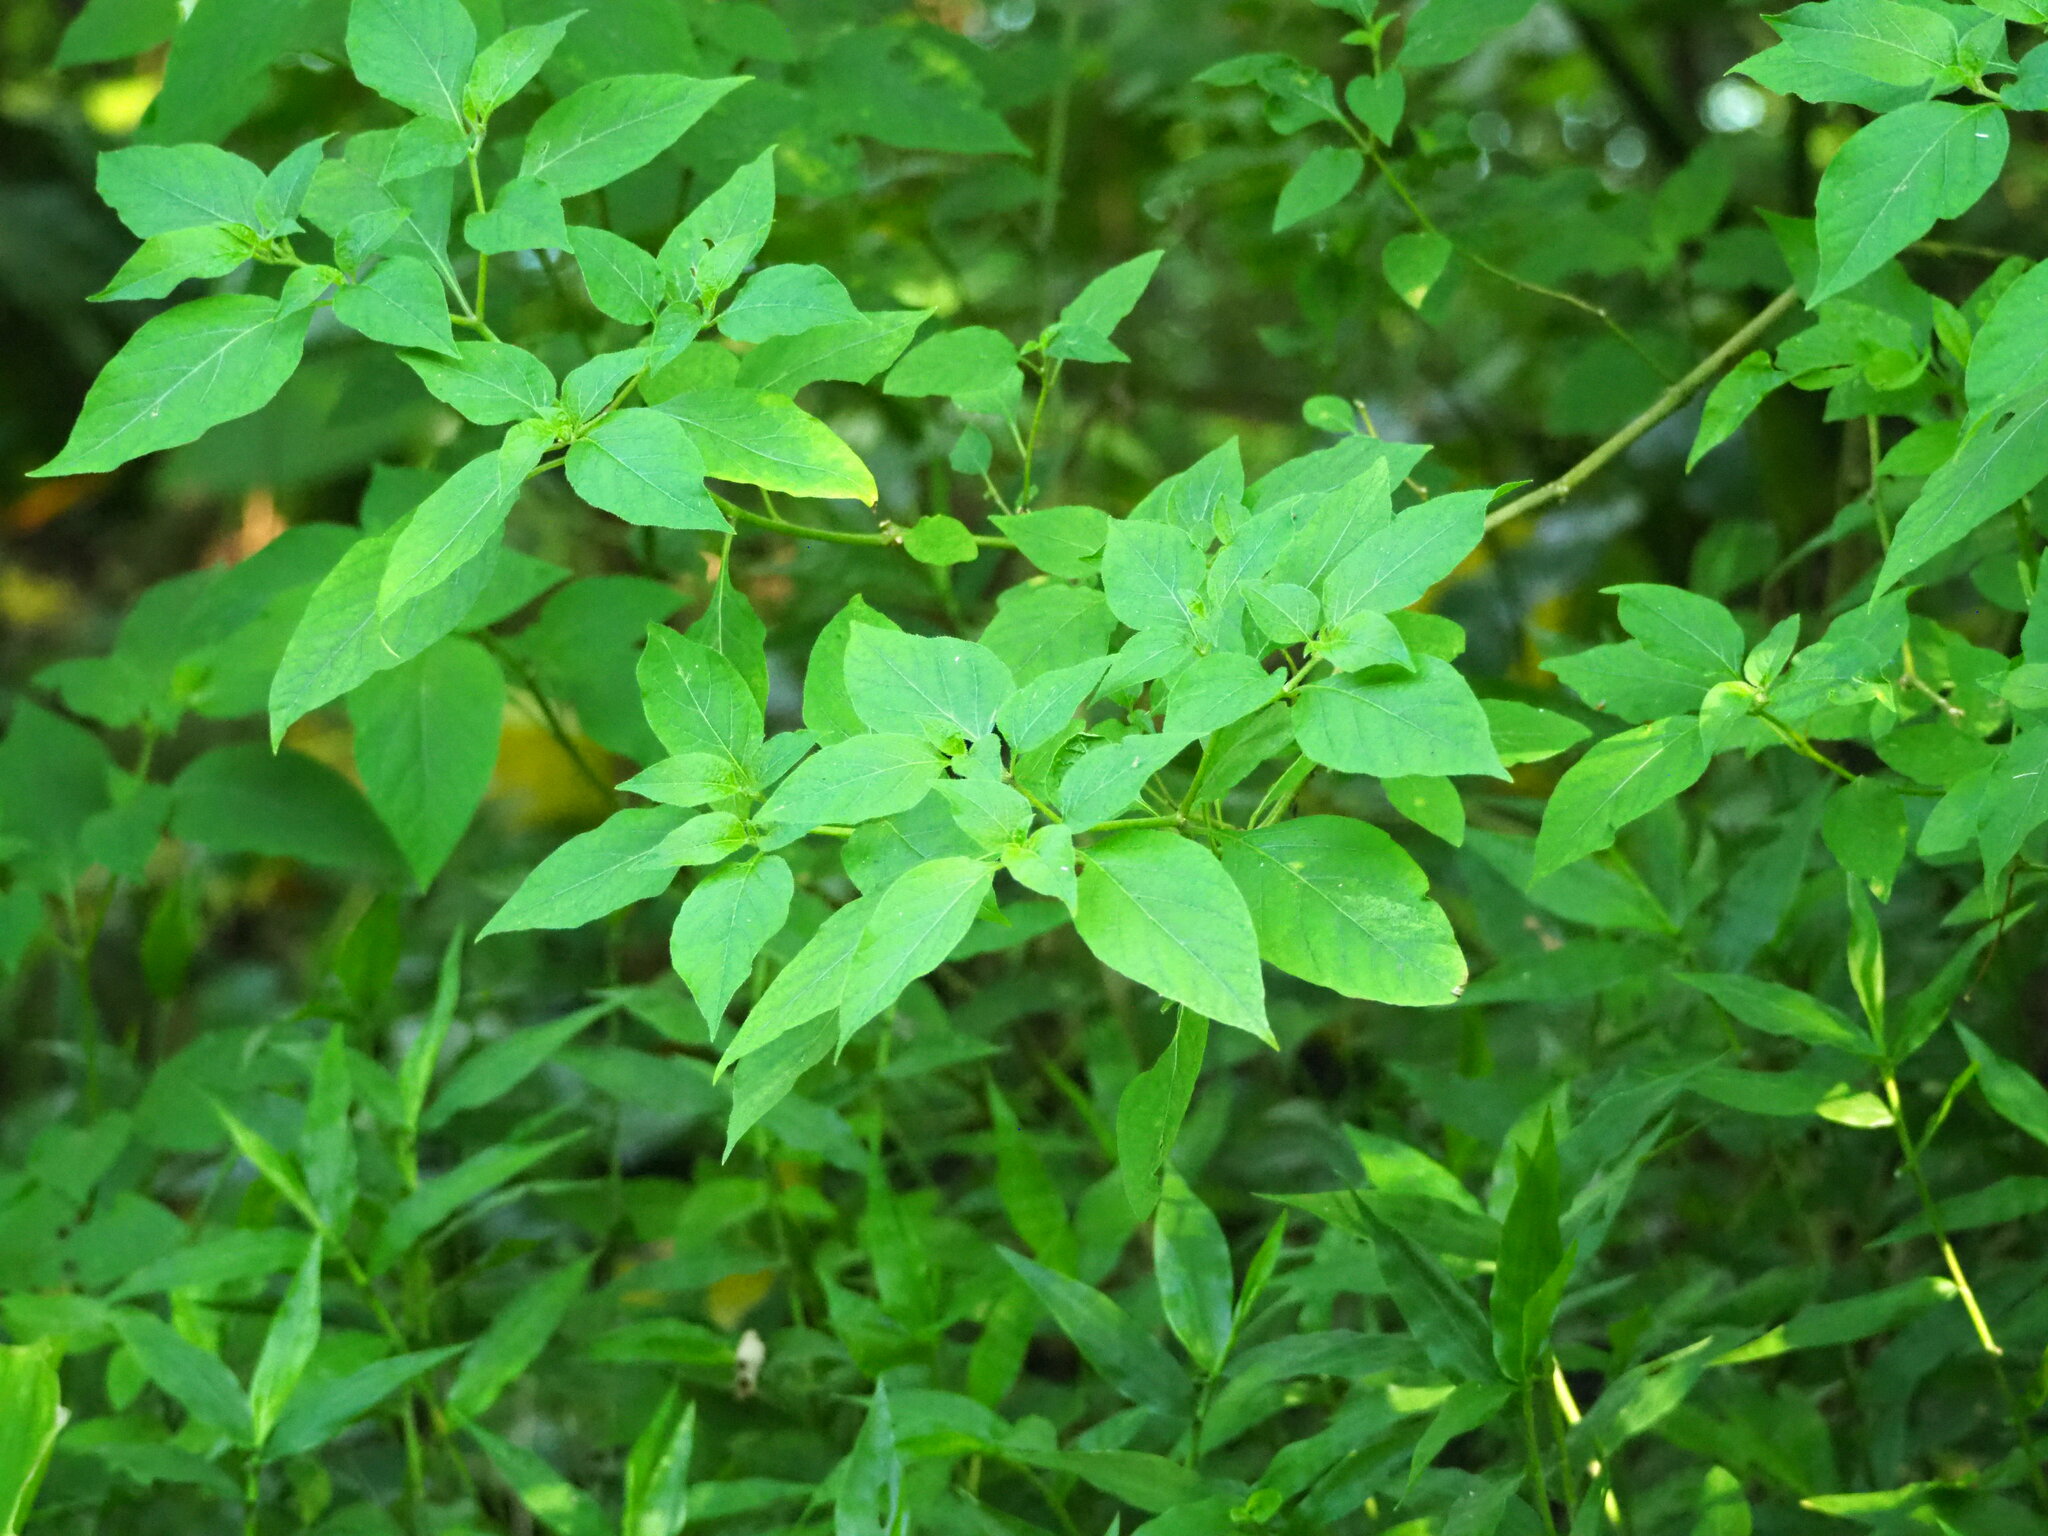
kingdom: Plantae
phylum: Tracheophyta
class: Magnoliopsida
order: Solanales
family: Solanaceae
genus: Lycianthes
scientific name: Lycianthes biflora
